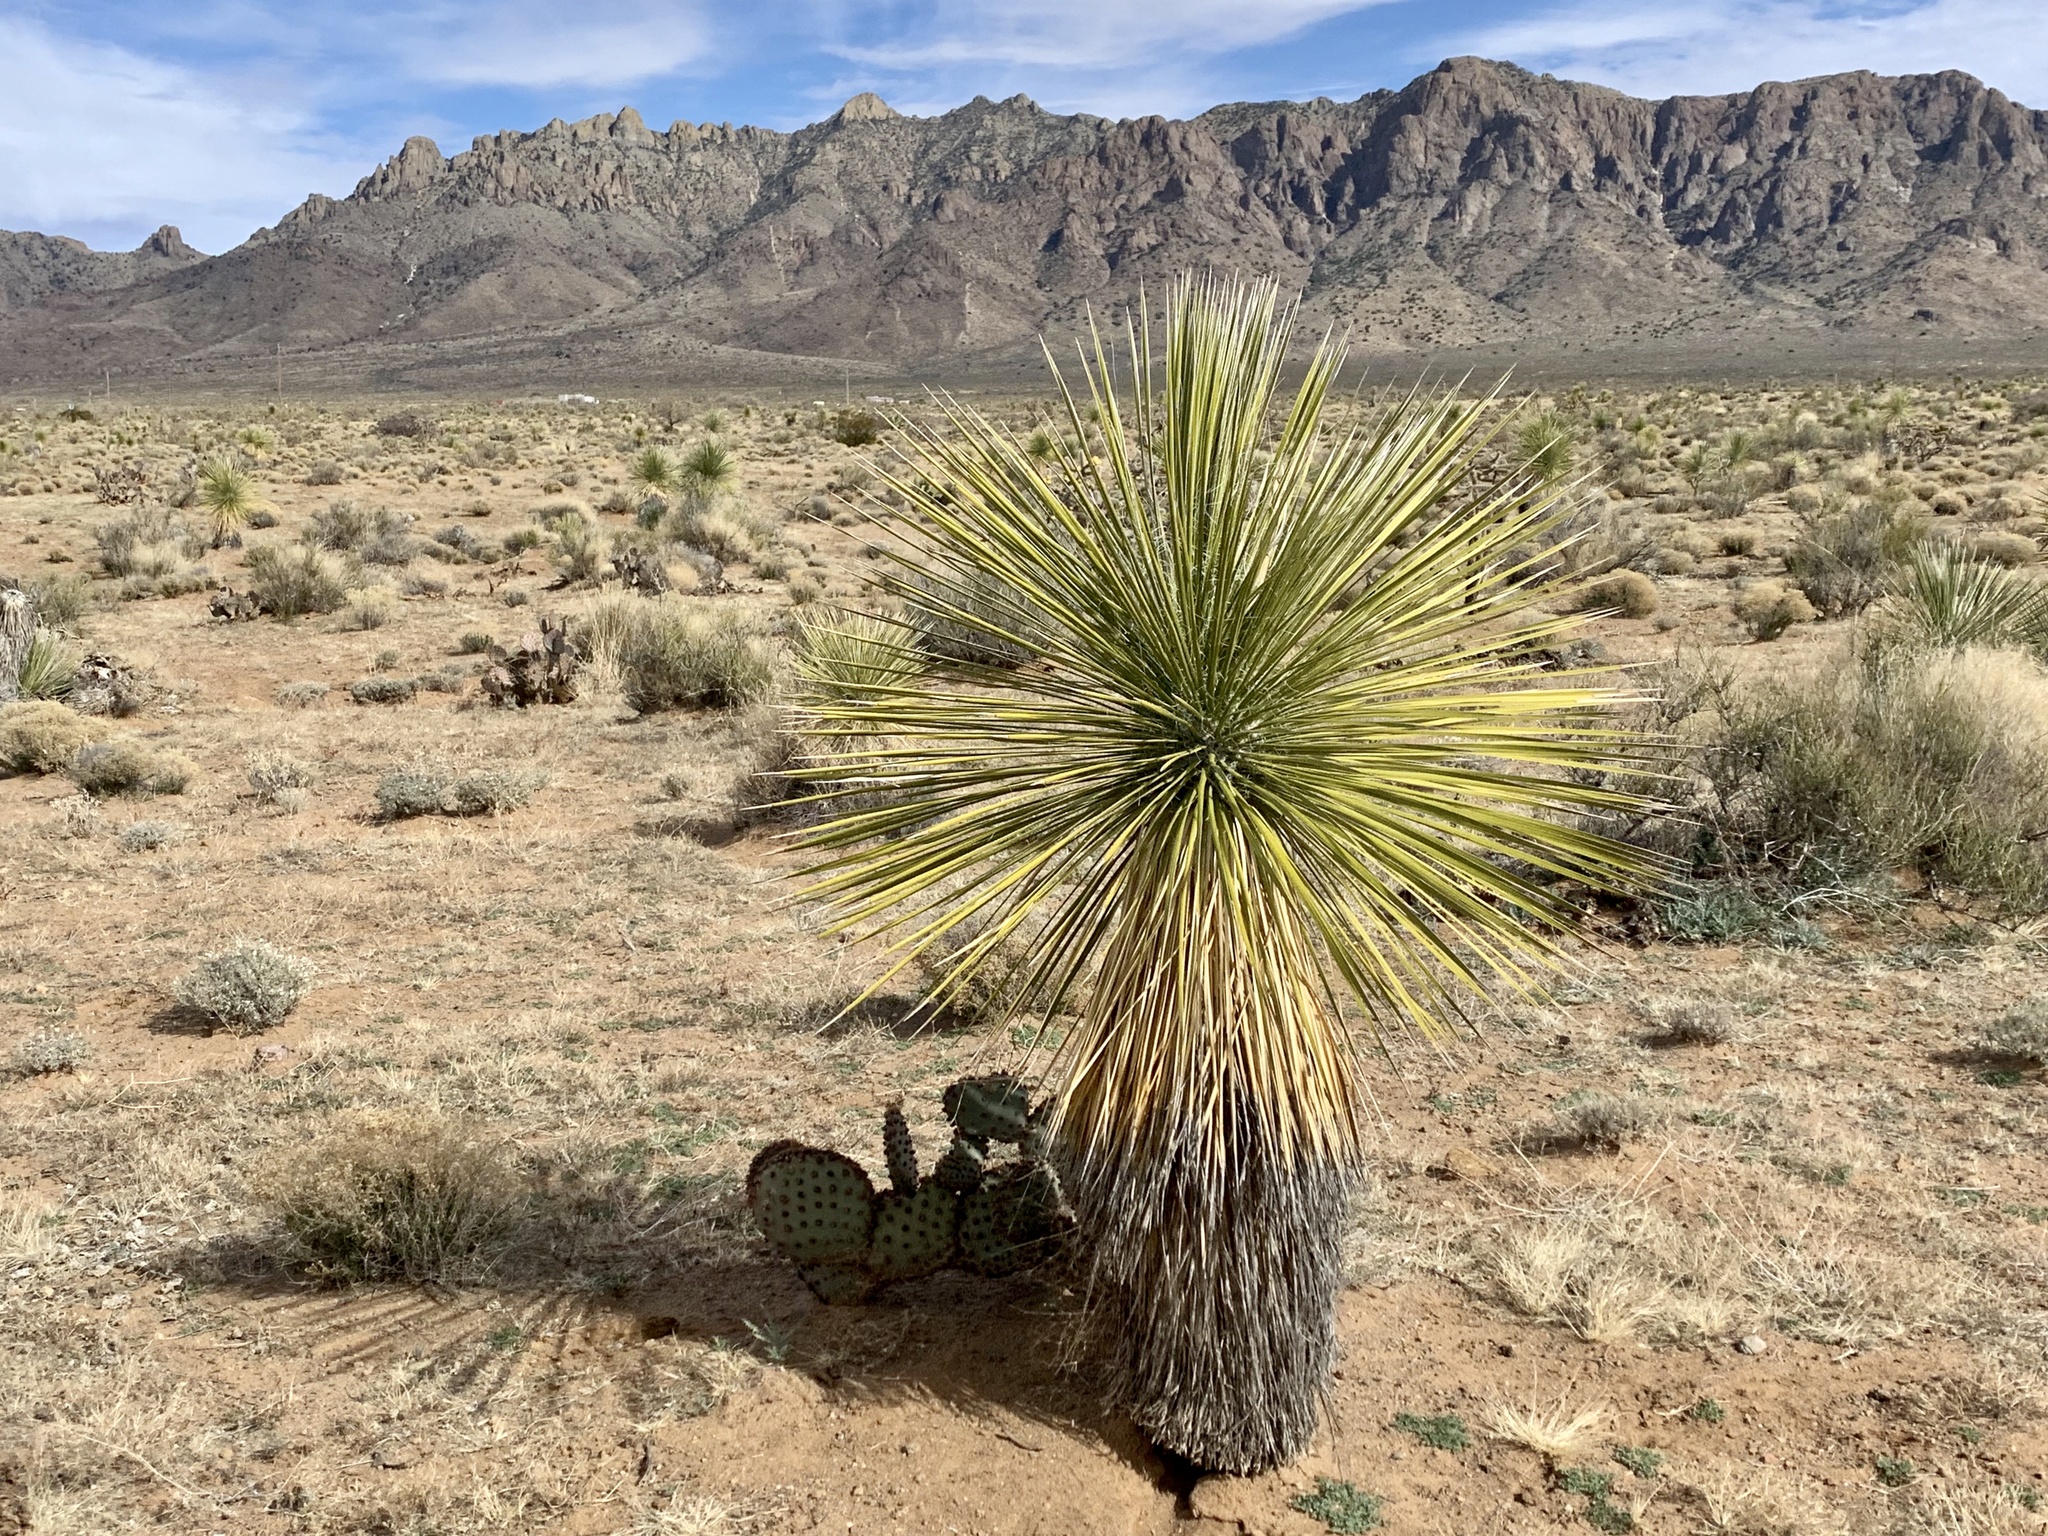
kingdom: Plantae
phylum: Tracheophyta
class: Liliopsida
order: Asparagales
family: Asparagaceae
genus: Yucca
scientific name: Yucca elata
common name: Palmella
